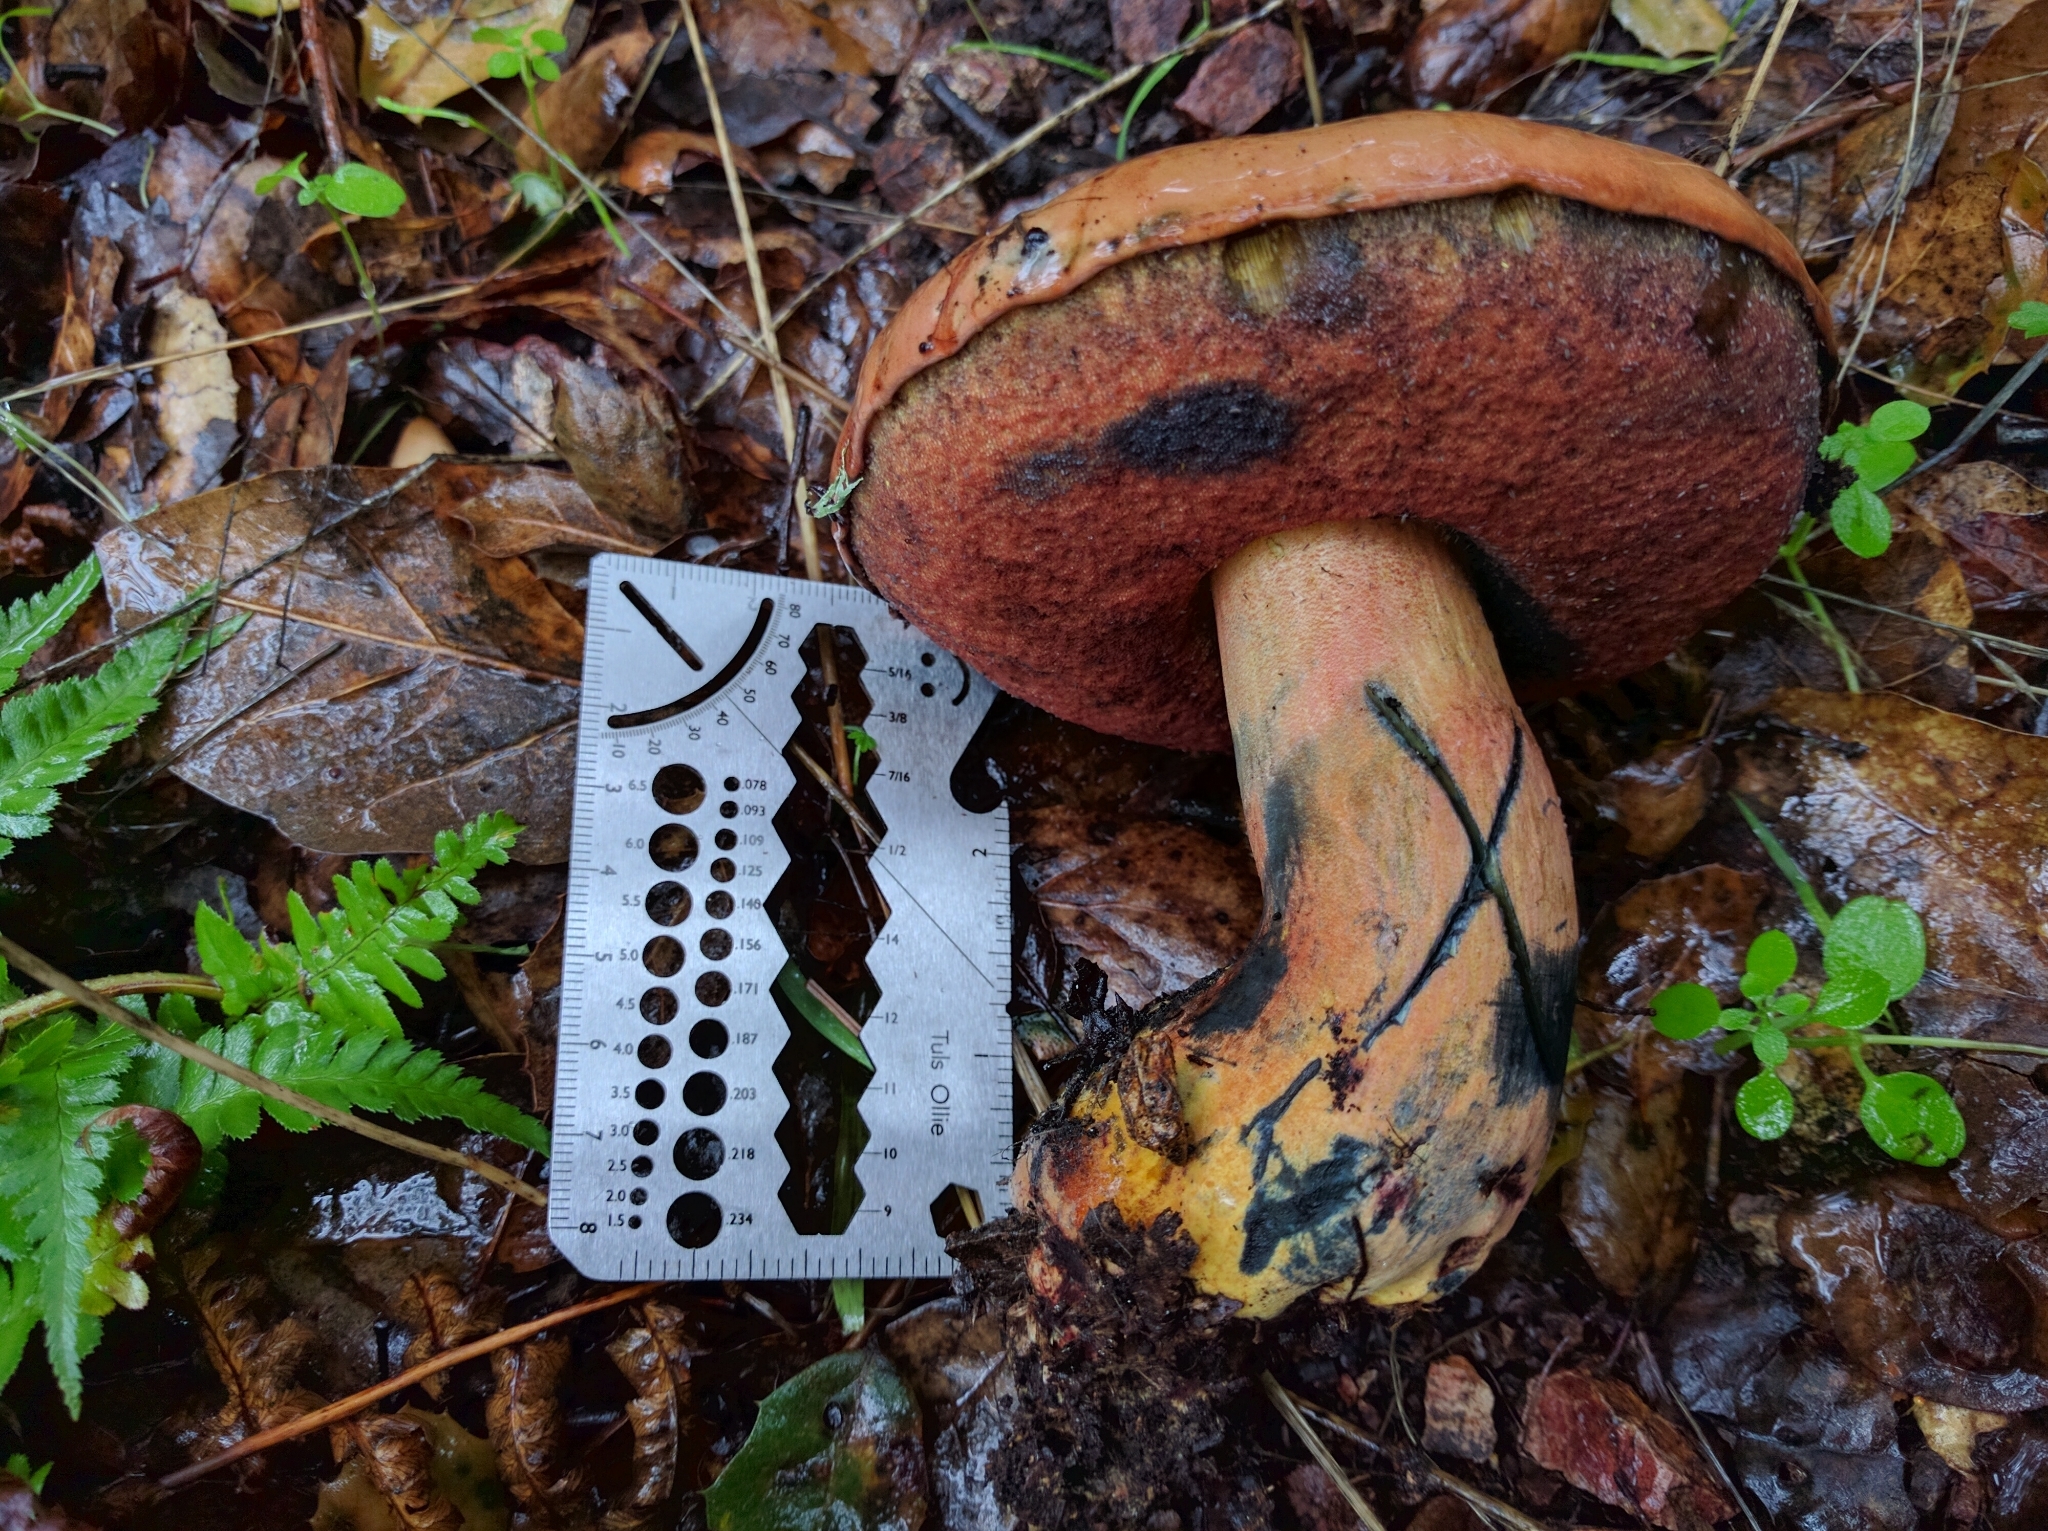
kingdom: Fungi
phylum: Basidiomycota
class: Agaricomycetes
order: Boletales
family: Boletaceae
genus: Suillellus
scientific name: Suillellus amygdalinus
